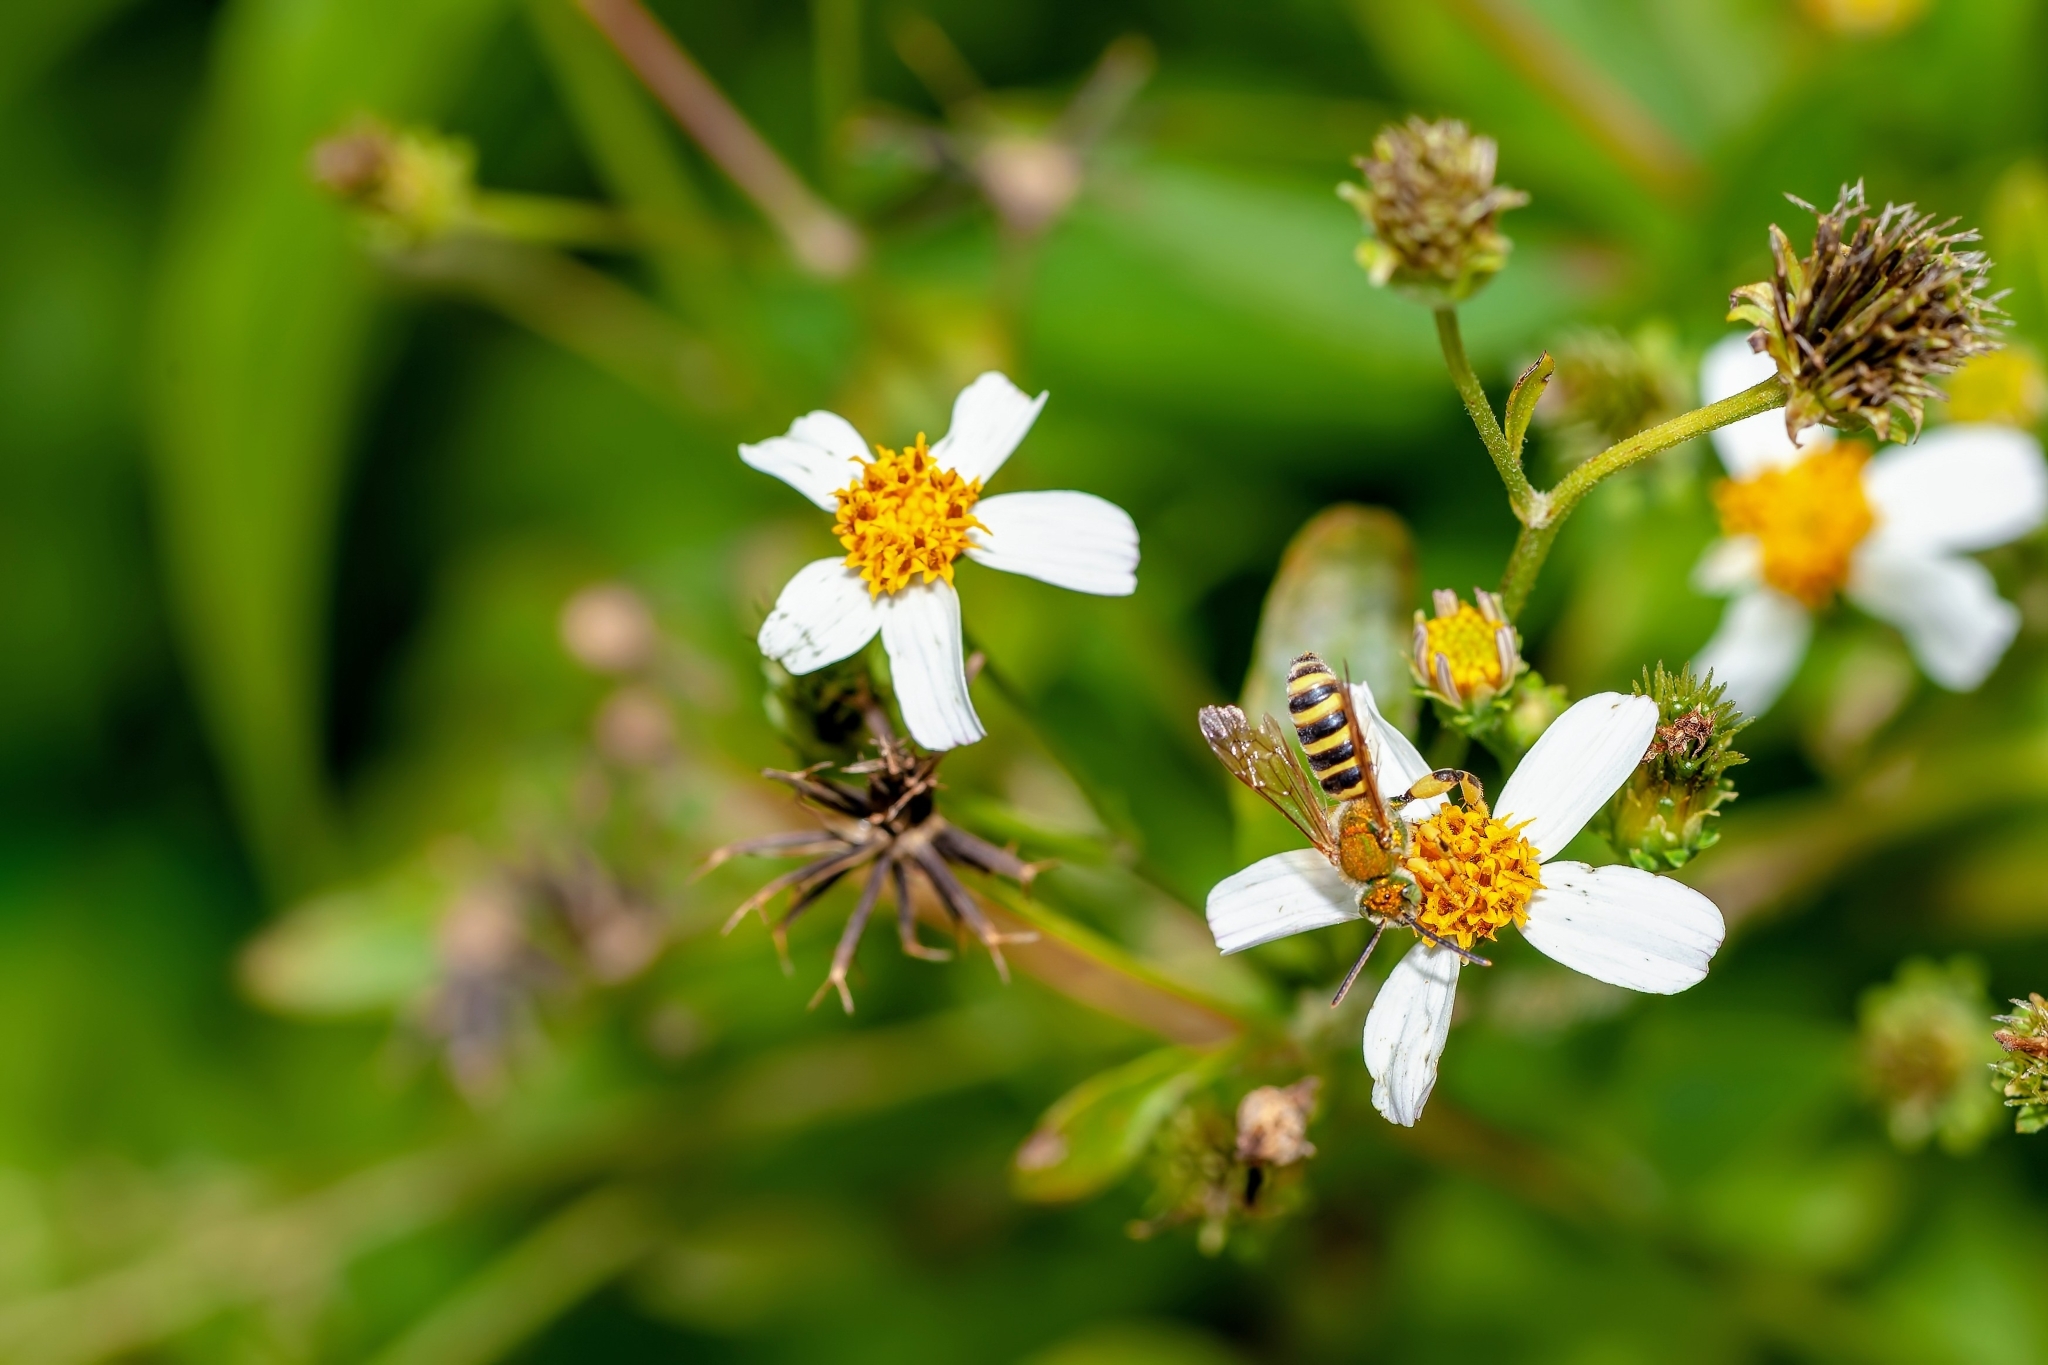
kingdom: Animalia
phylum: Arthropoda
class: Insecta
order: Hymenoptera
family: Halictidae
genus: Agapostemon
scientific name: Agapostemon splendens
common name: Brown-winged striped sweat bee
